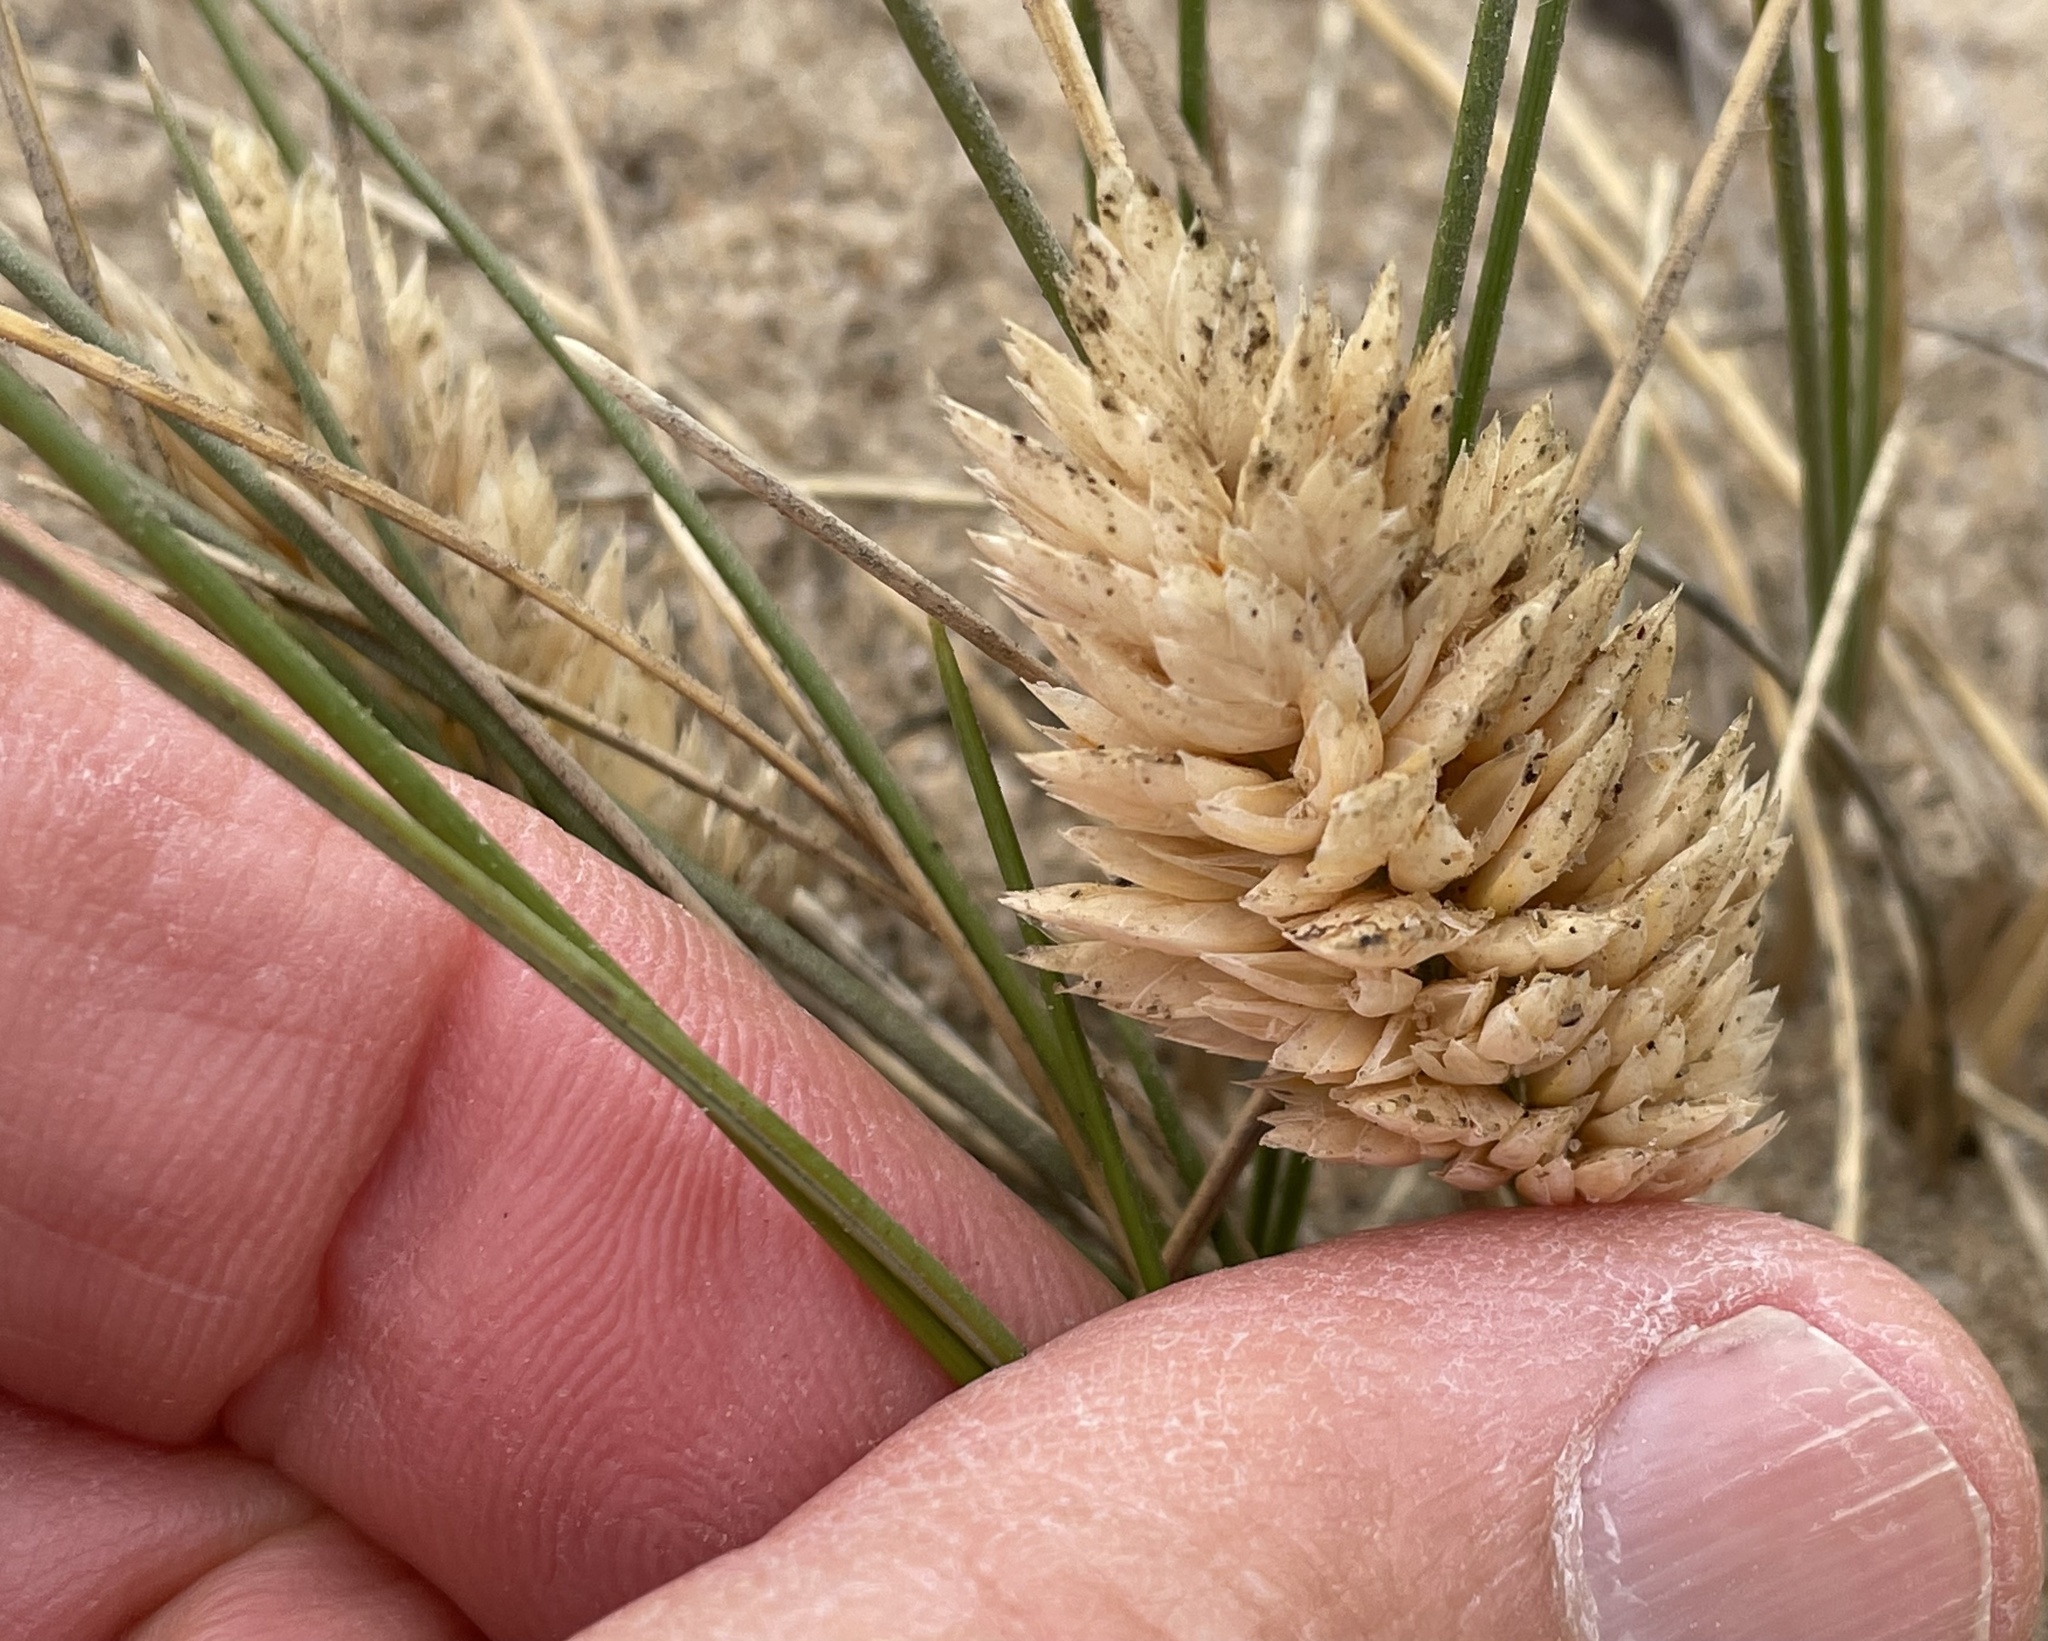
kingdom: Plantae
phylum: Tracheophyta
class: Liliopsida
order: Poales
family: Poaceae
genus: Poa
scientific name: Poa douglasii
